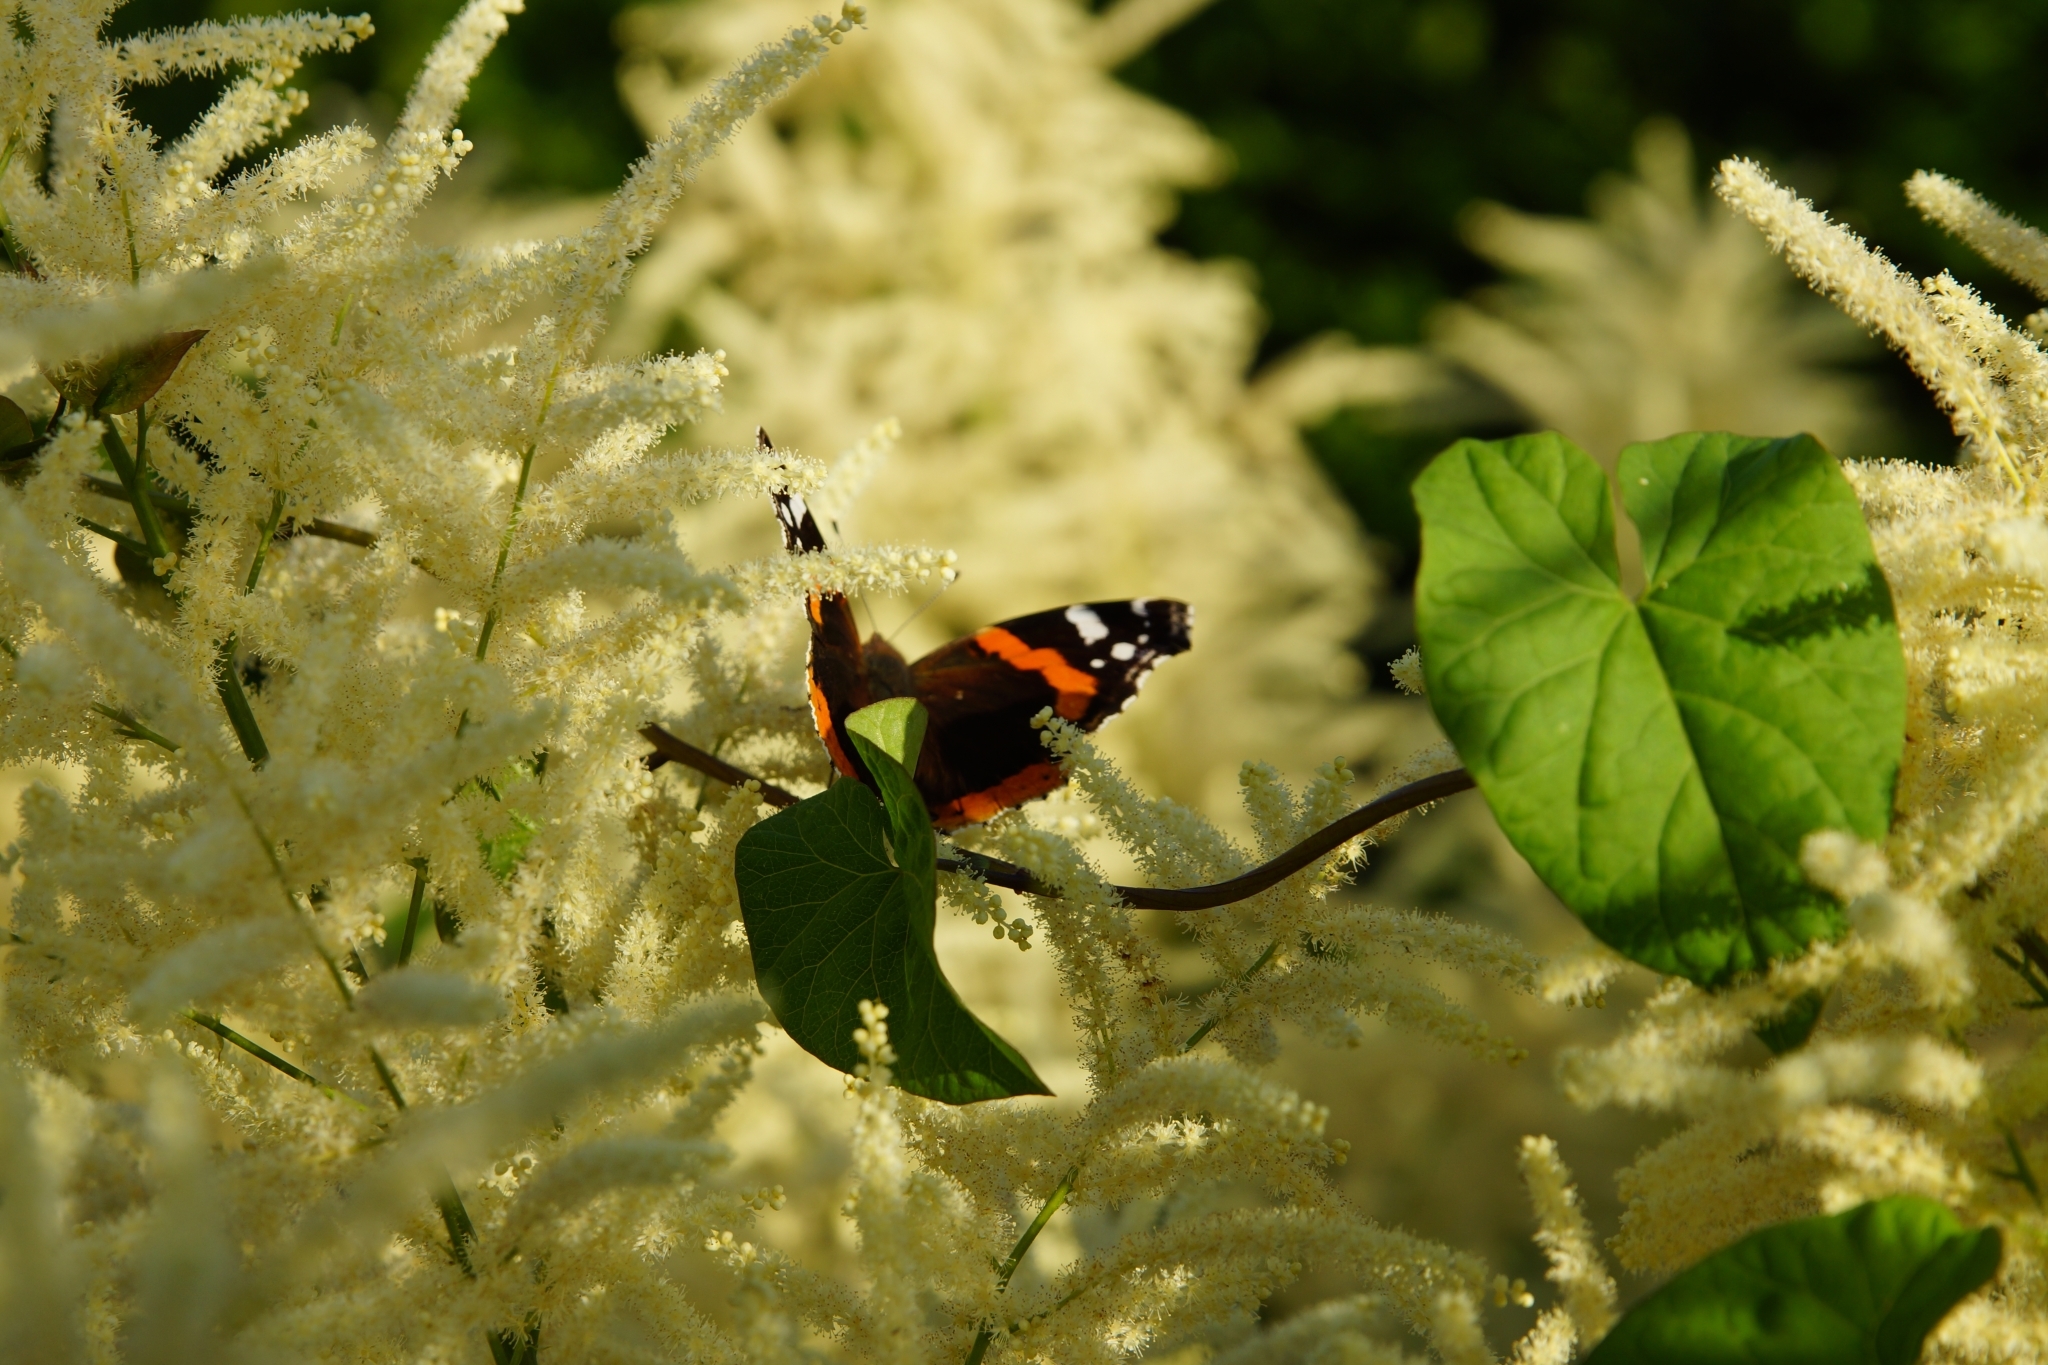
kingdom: Animalia
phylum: Arthropoda
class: Insecta
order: Lepidoptera
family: Nymphalidae
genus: Vanessa
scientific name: Vanessa atalanta
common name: Red admiral
